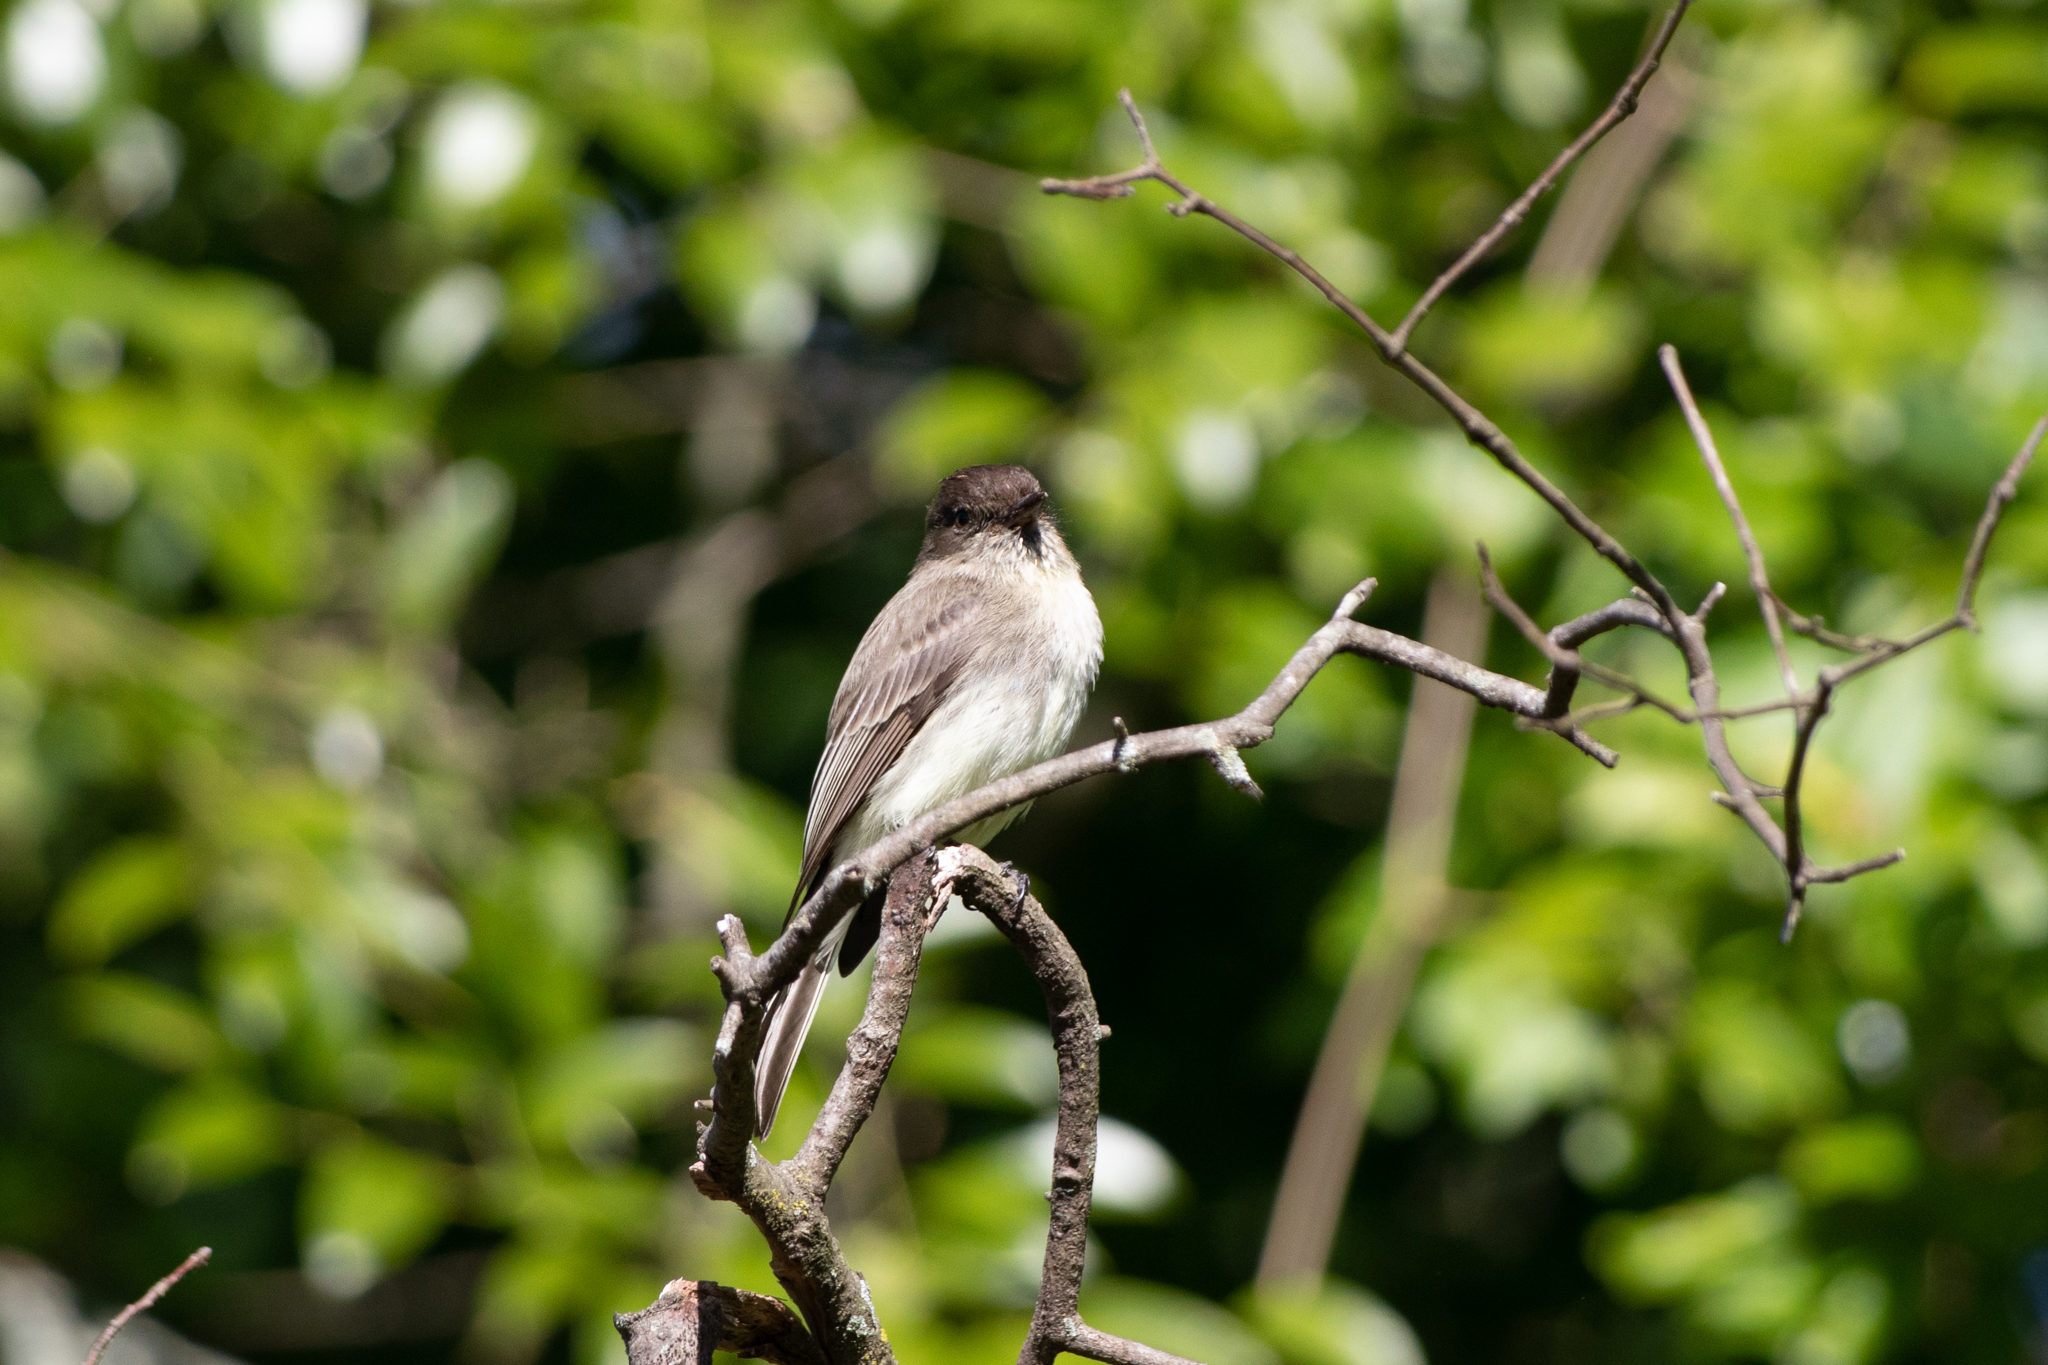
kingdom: Animalia
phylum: Chordata
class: Aves
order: Passeriformes
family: Tyrannidae
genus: Sayornis
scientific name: Sayornis phoebe
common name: Eastern phoebe
